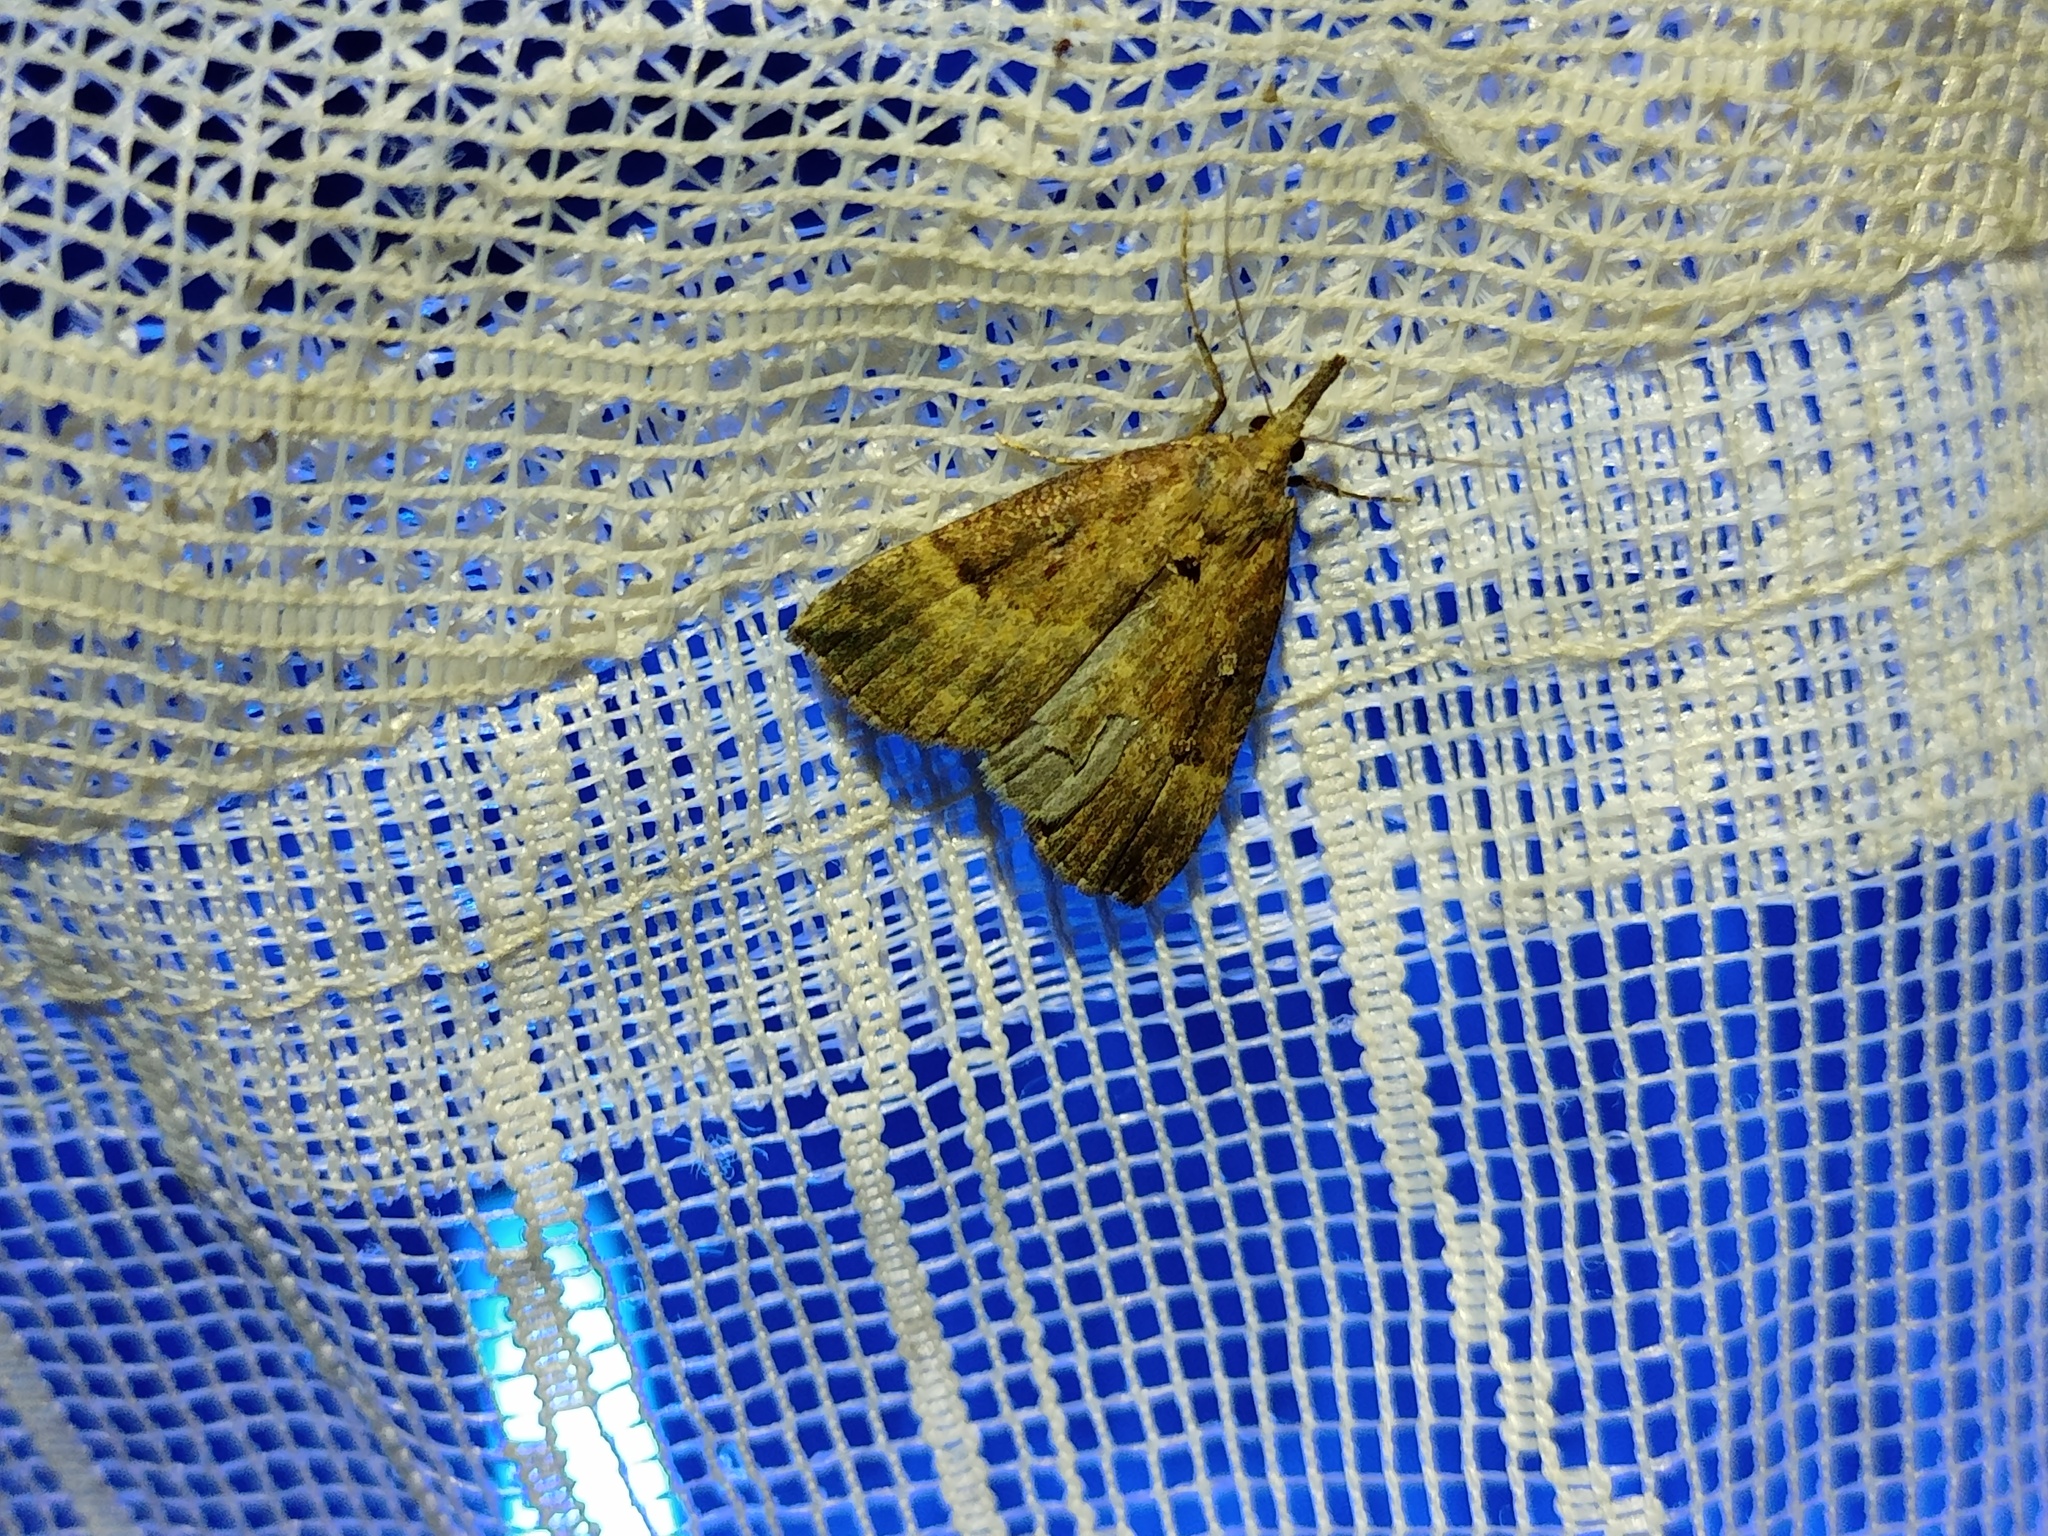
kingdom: Animalia
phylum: Arthropoda
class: Insecta
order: Lepidoptera
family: Erebidae
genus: Hypena
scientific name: Hypena rostralis
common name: Buttoned snout
